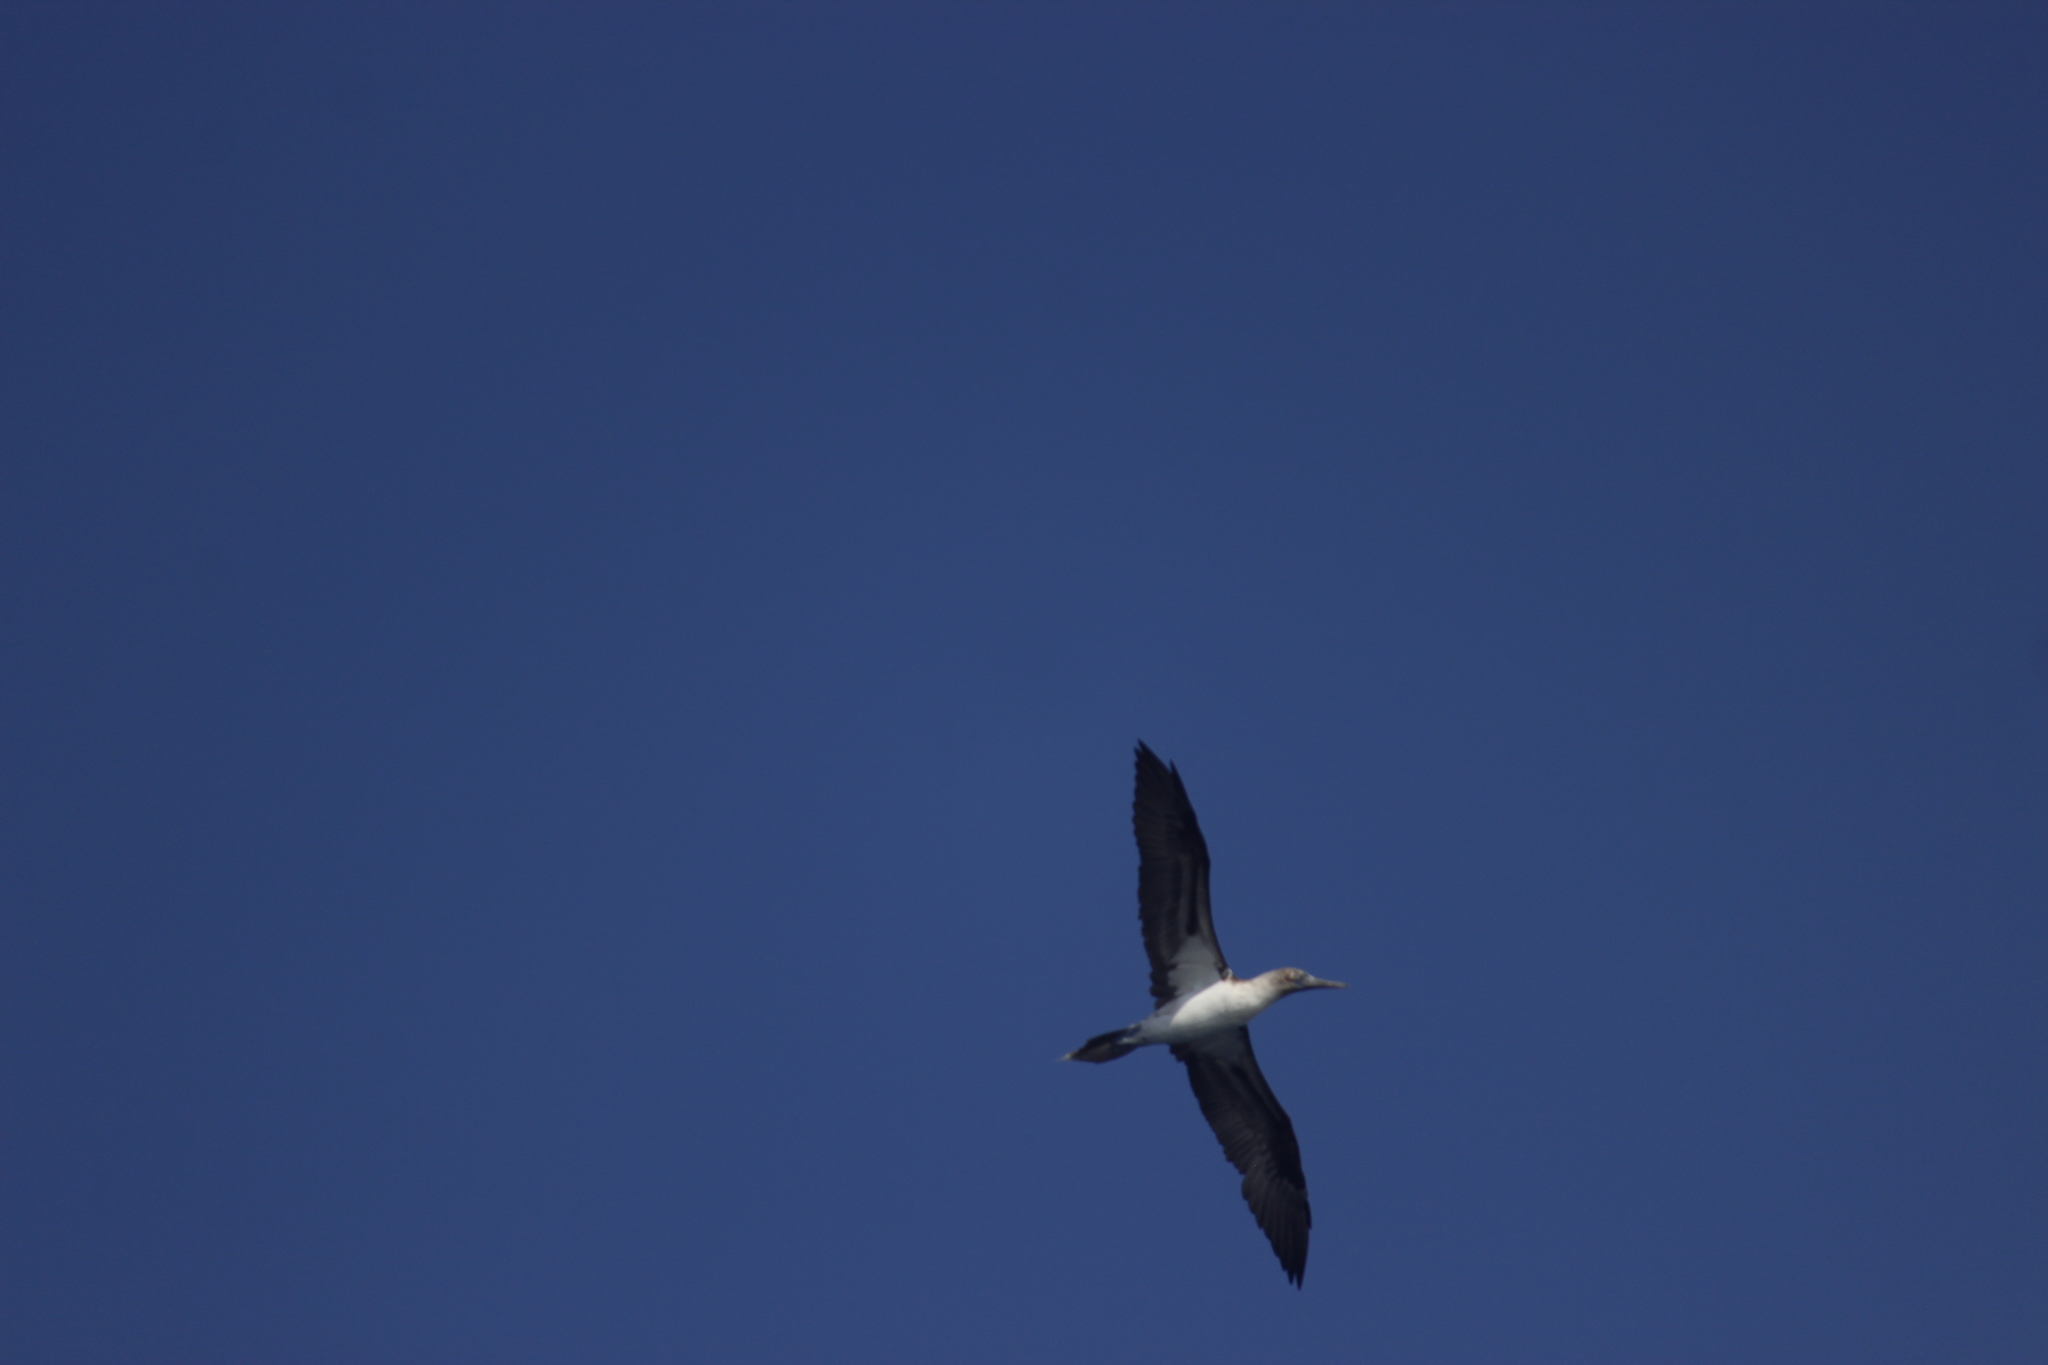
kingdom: Animalia
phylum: Chordata
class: Aves
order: Suliformes
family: Sulidae
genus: Sula
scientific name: Sula nebouxii
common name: Blue-footed booby
